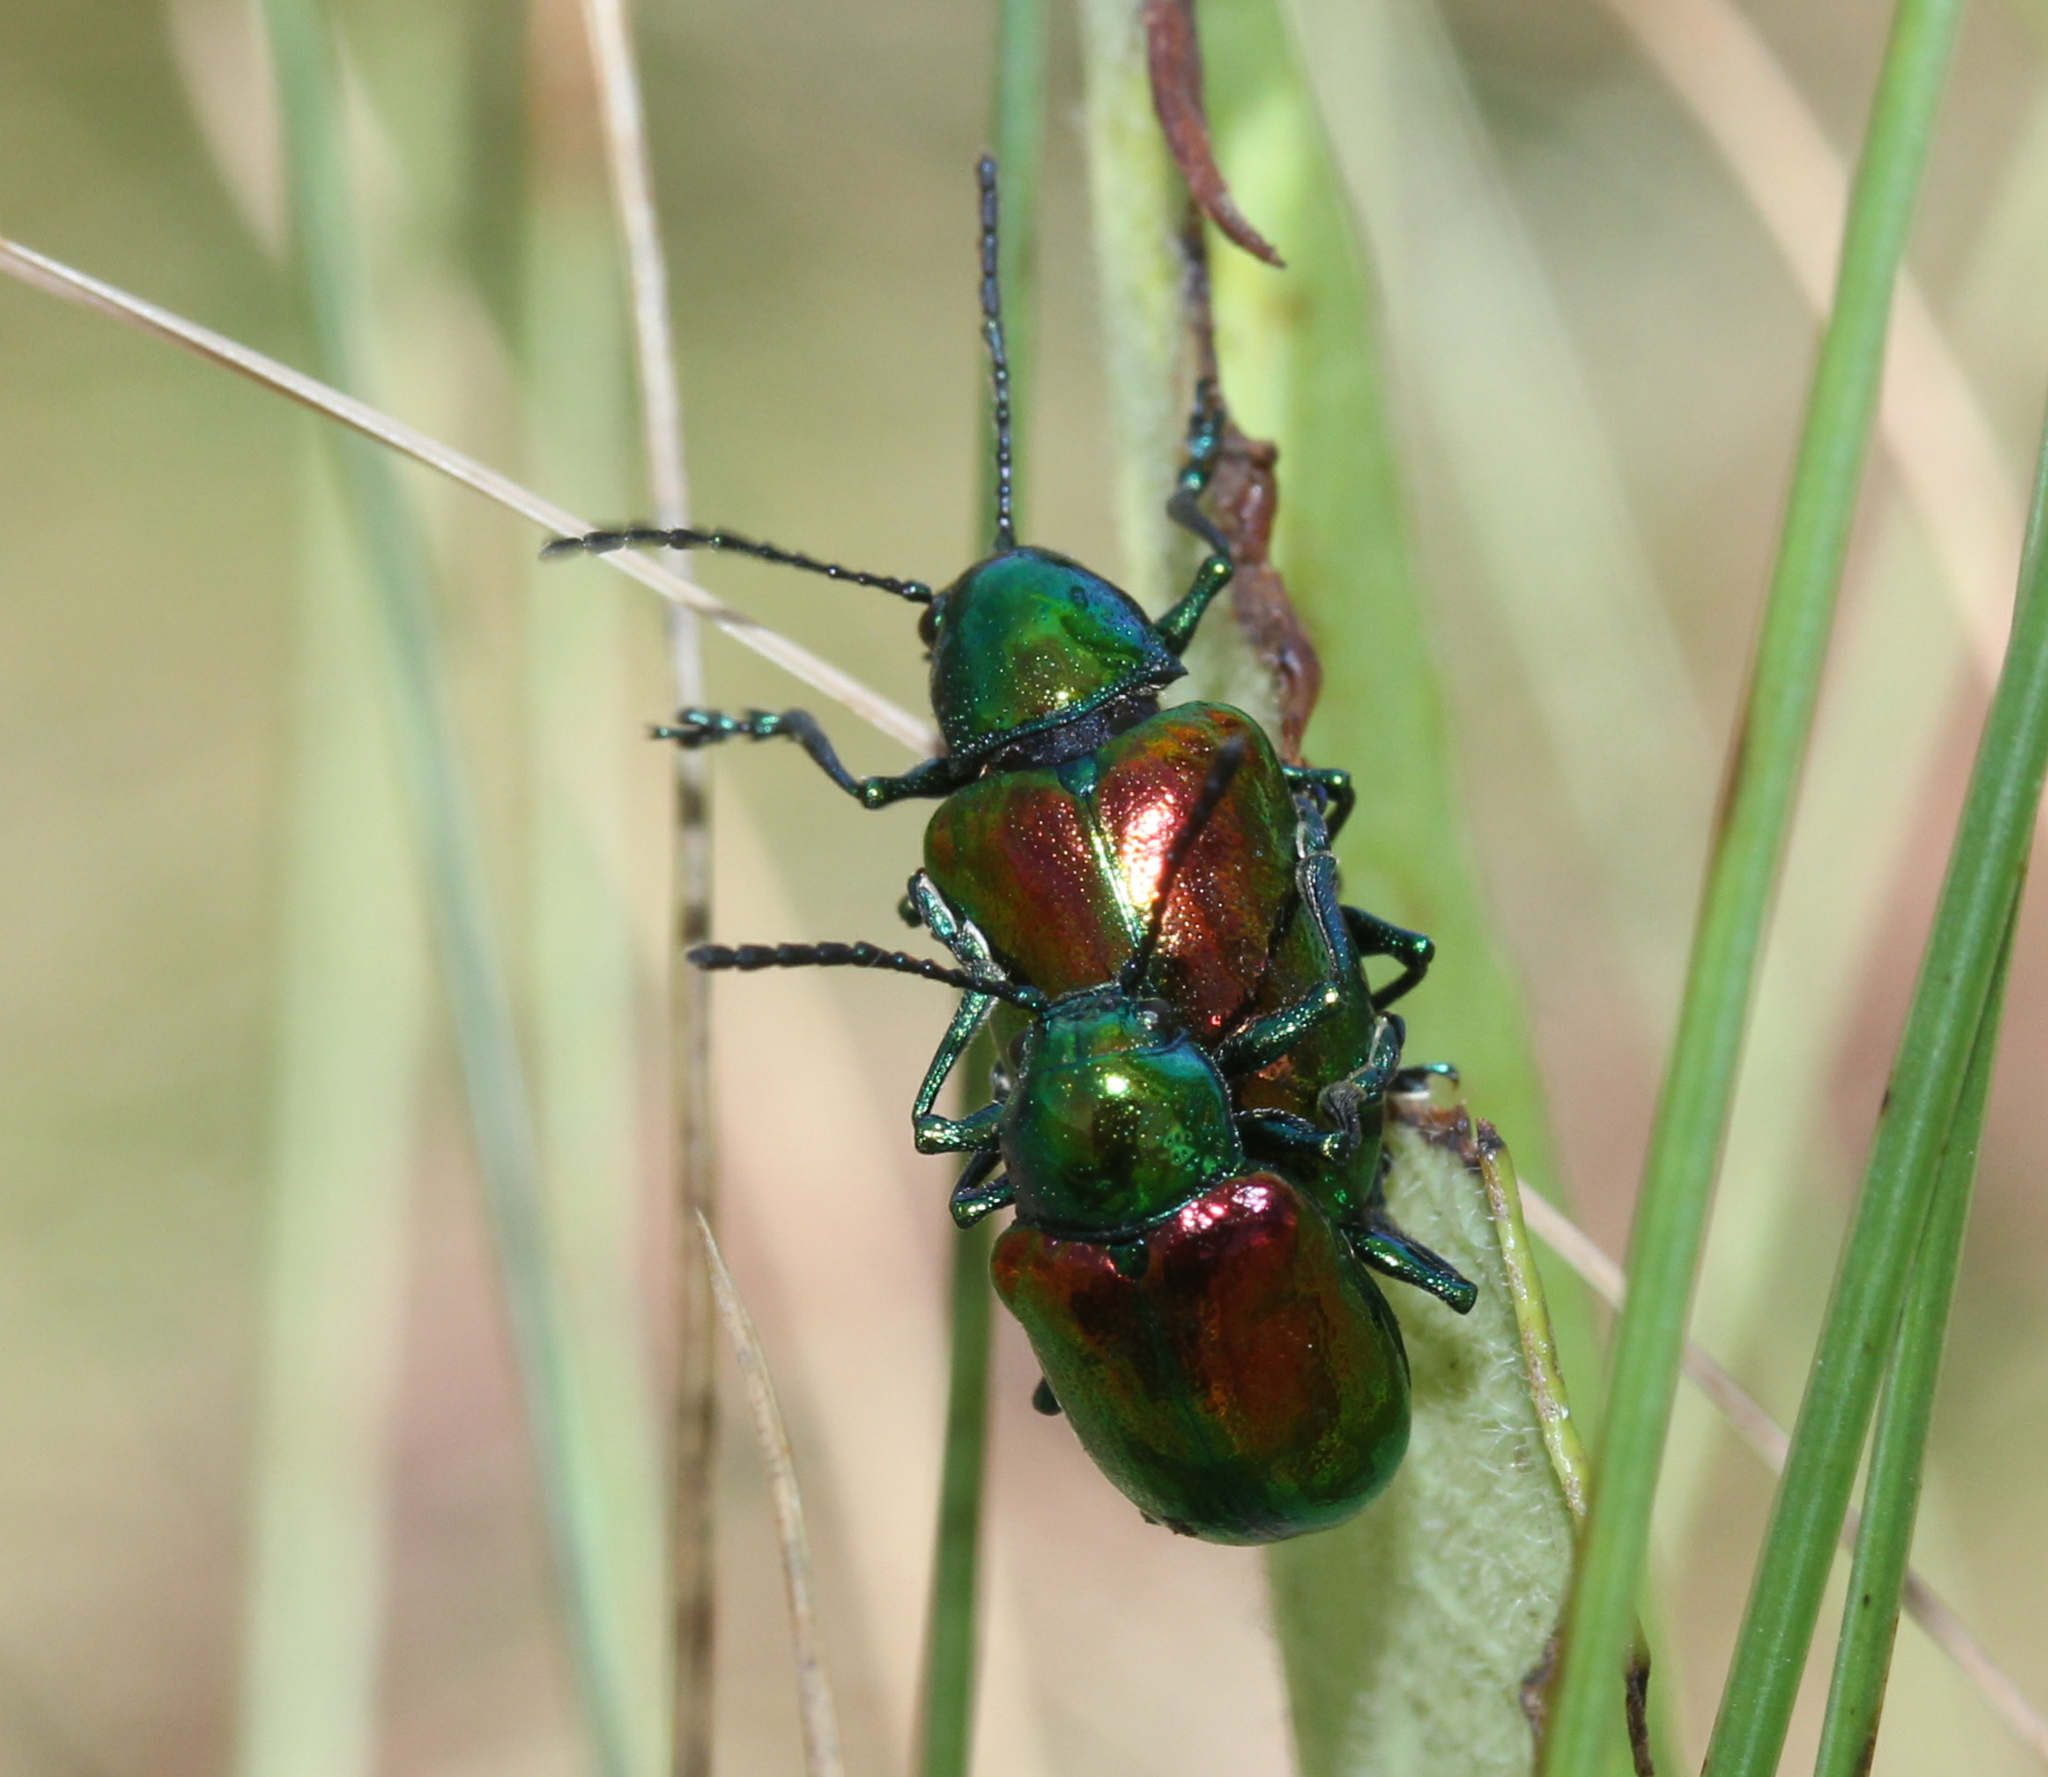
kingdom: Animalia
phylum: Arthropoda
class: Insecta
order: Coleoptera
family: Chrysomelidae
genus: Chrysochus
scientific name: Chrysochus auratus
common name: Dogbane leaf beetle
